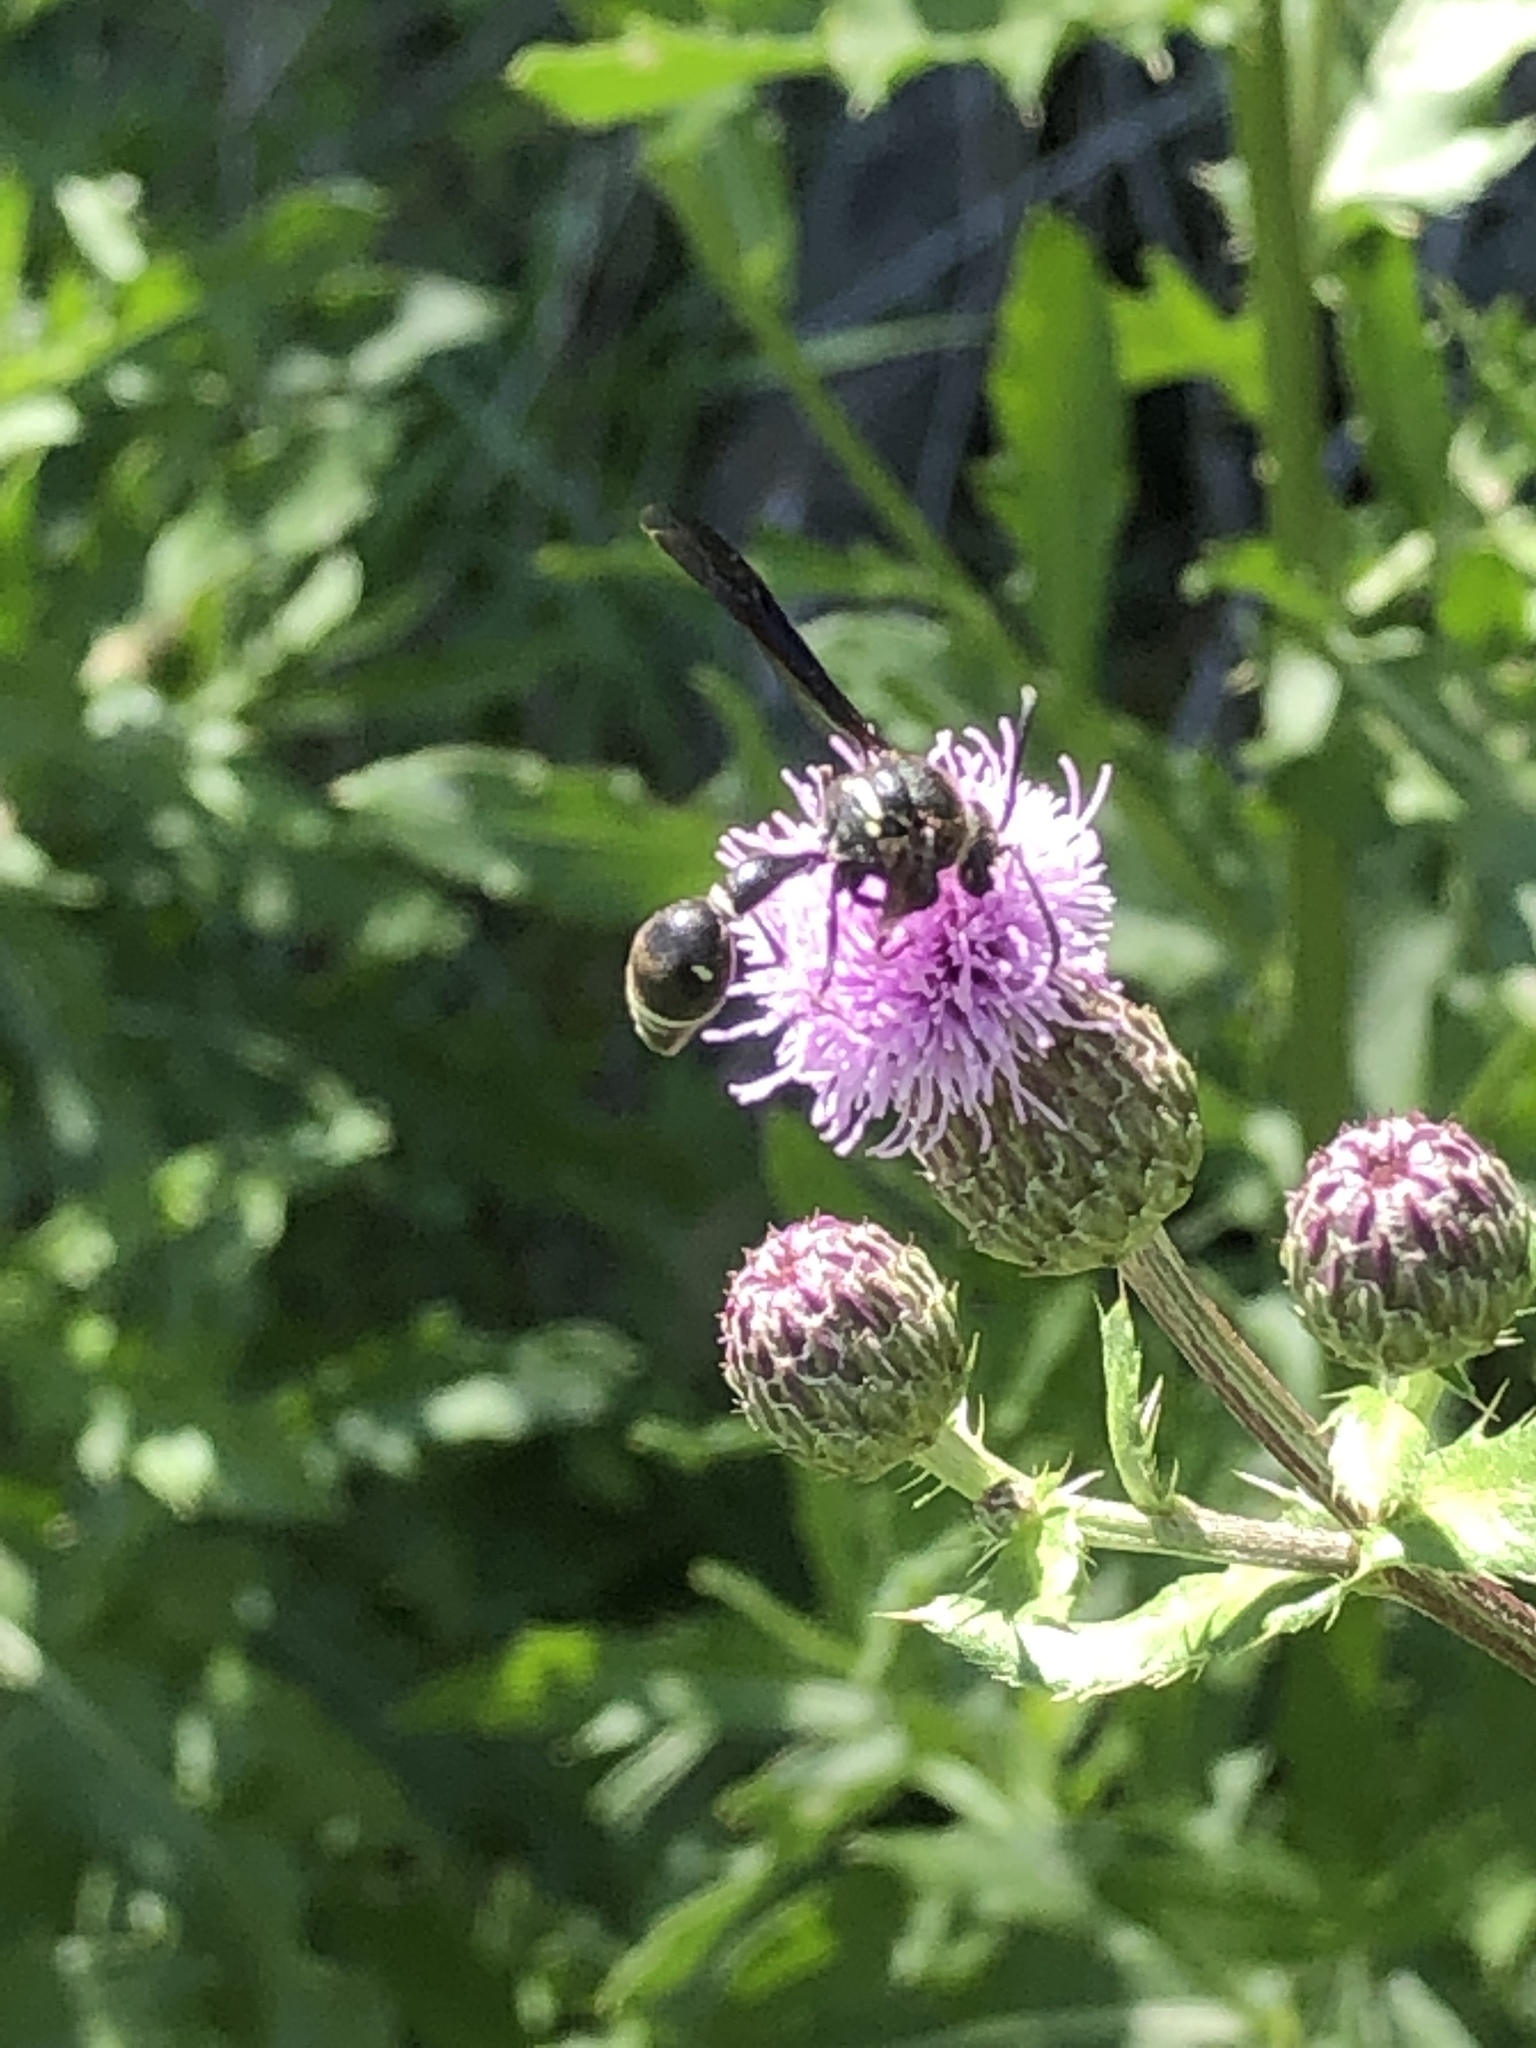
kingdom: Animalia
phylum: Arthropoda
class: Insecta
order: Hymenoptera
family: Vespidae
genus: Eumenes
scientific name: Eumenes fraternus
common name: Fraternal potter wasp
